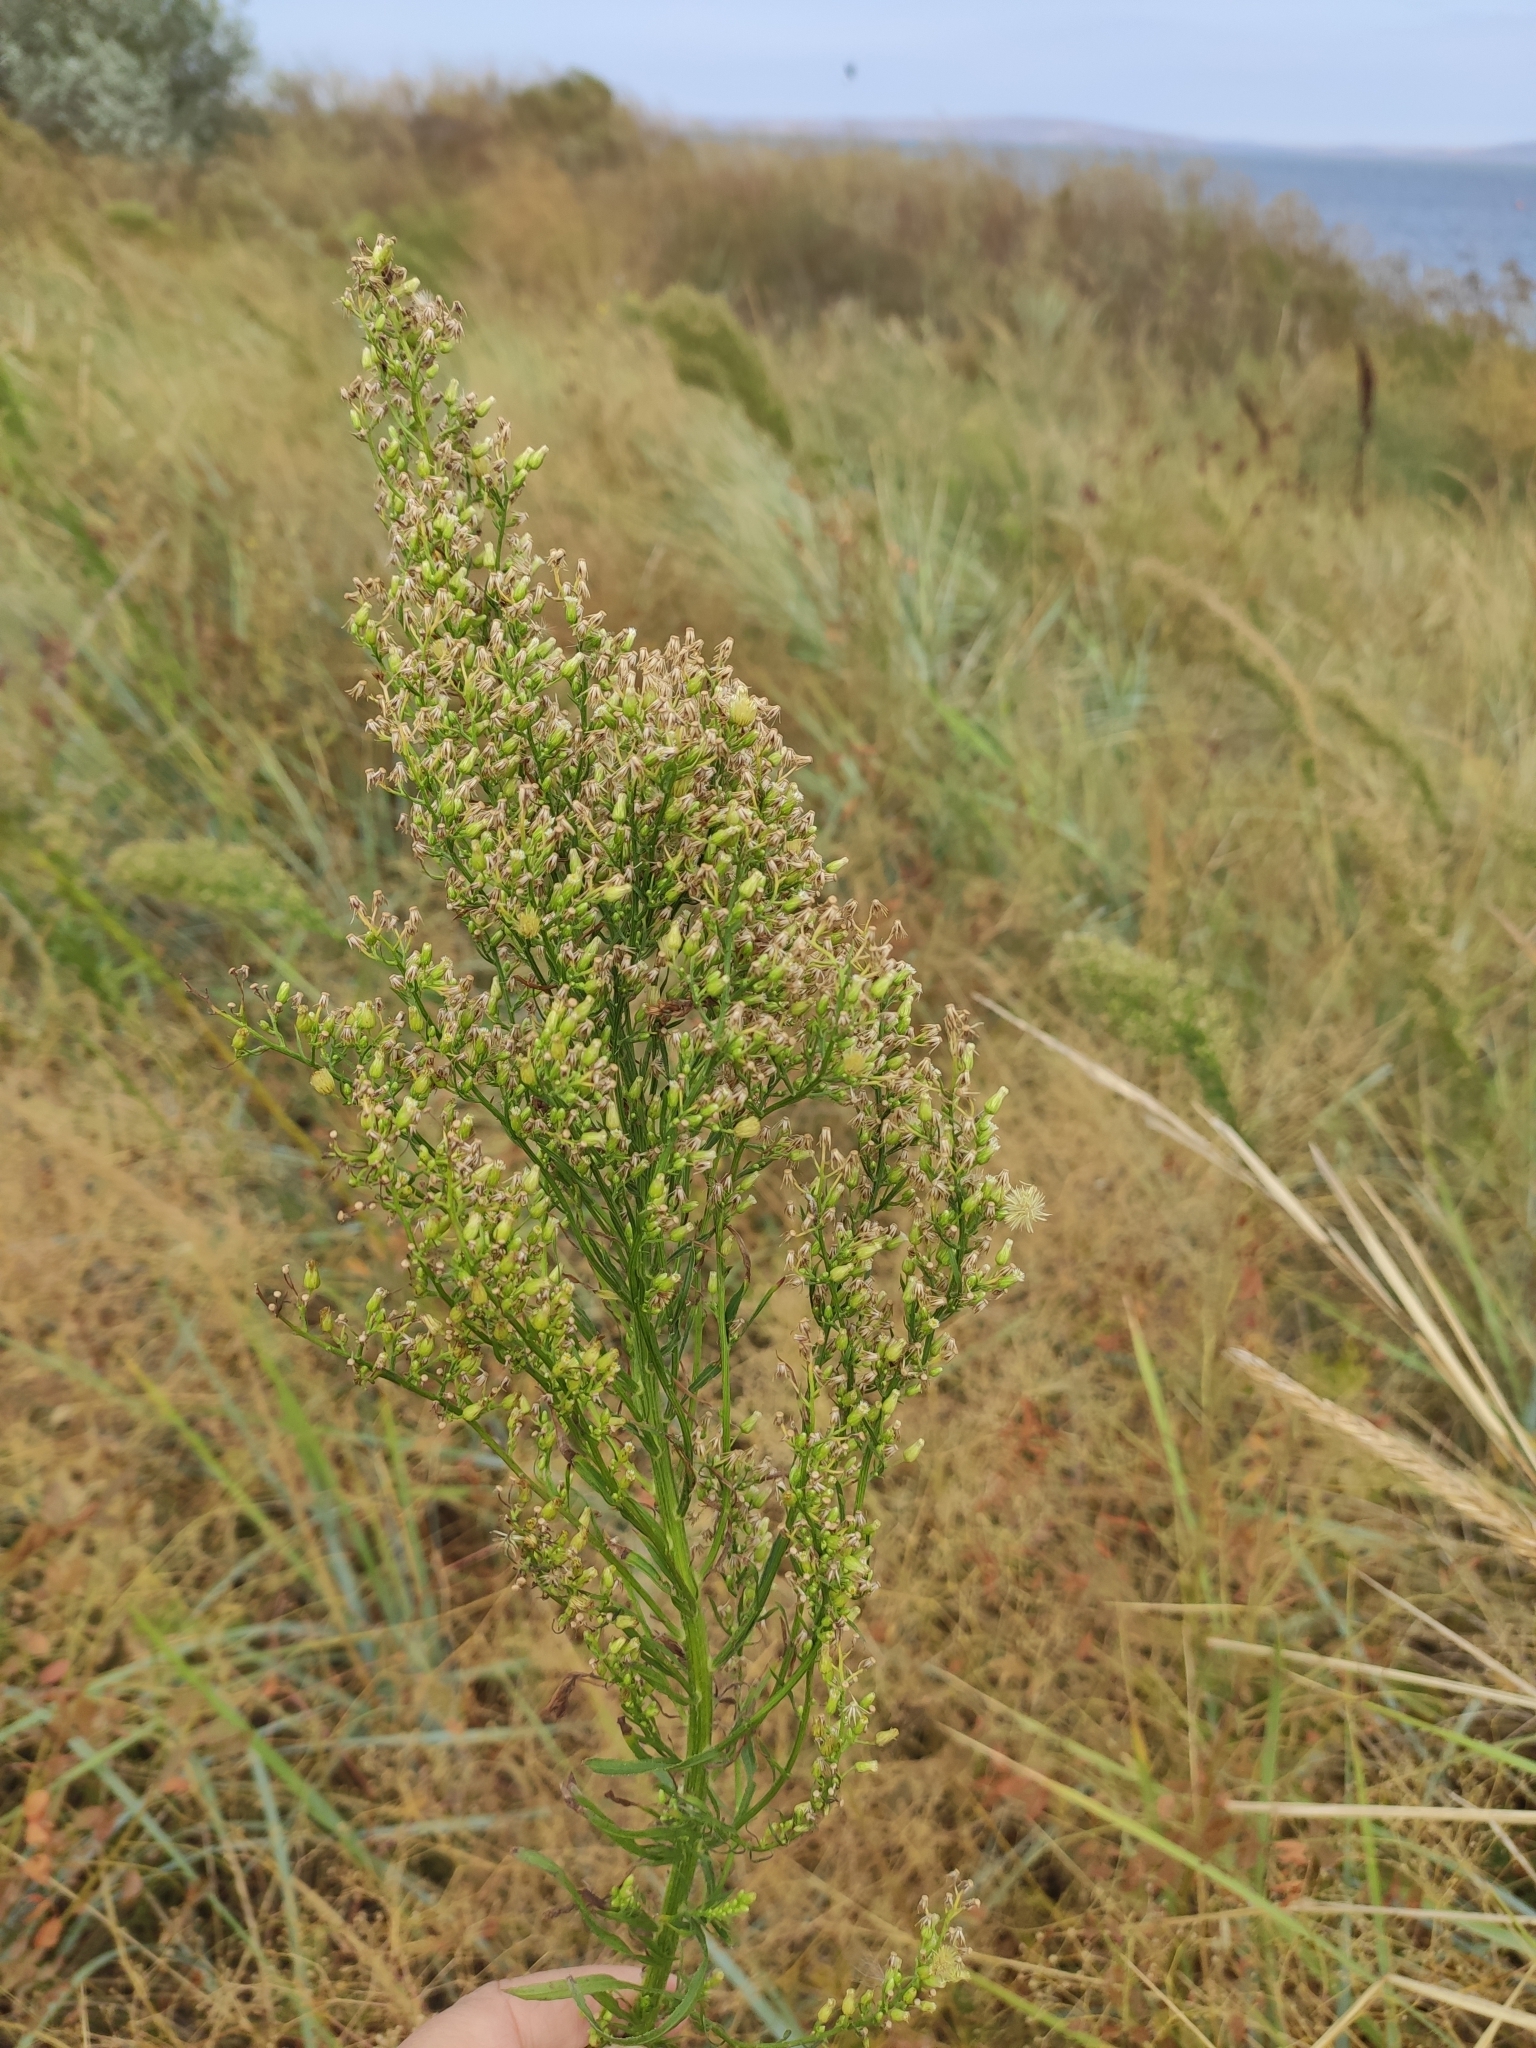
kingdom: Plantae
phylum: Tracheophyta
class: Magnoliopsida
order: Asterales
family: Asteraceae
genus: Erigeron
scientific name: Erigeron canadensis
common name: Canadian fleabane
